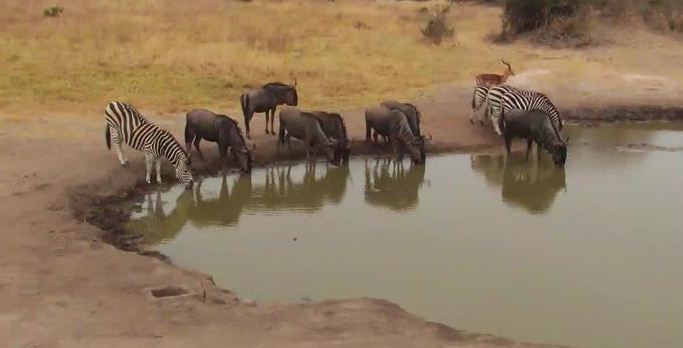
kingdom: Animalia
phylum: Chordata
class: Mammalia
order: Perissodactyla
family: Equidae
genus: Equus
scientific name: Equus quagga
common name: Plains zebra
